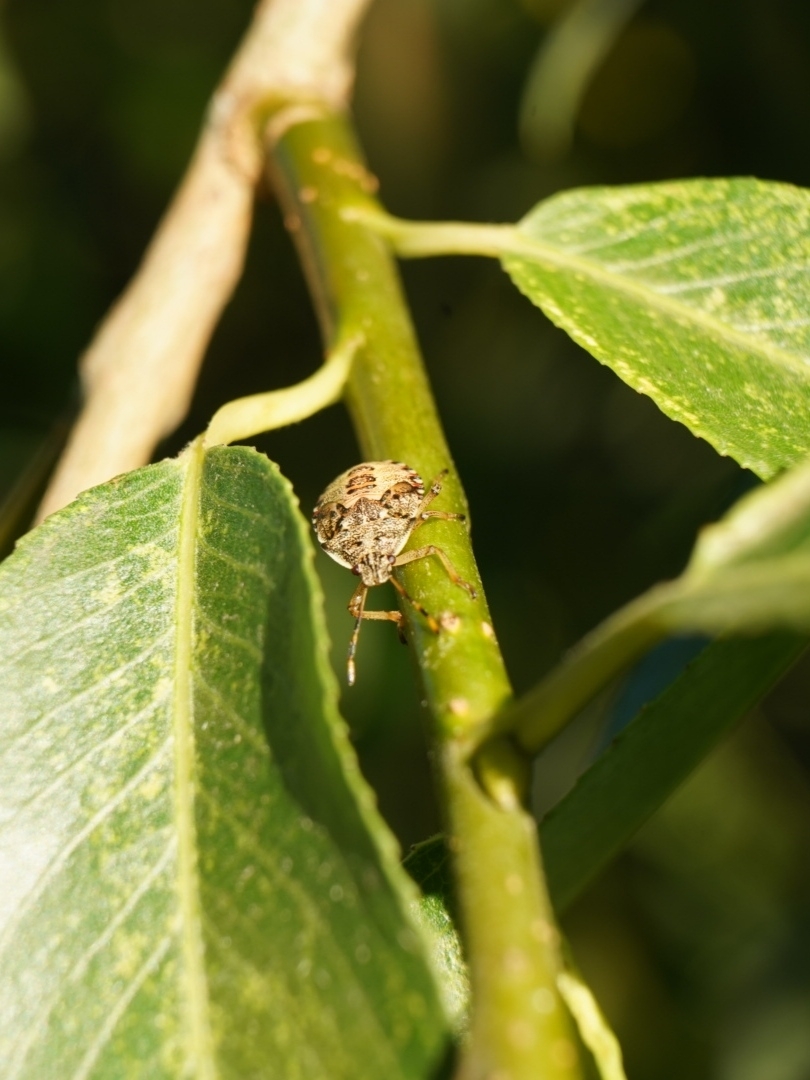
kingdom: Animalia
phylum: Arthropoda
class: Insecta
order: Hemiptera
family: Pentatomidae
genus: Arma
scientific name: Arma custos
